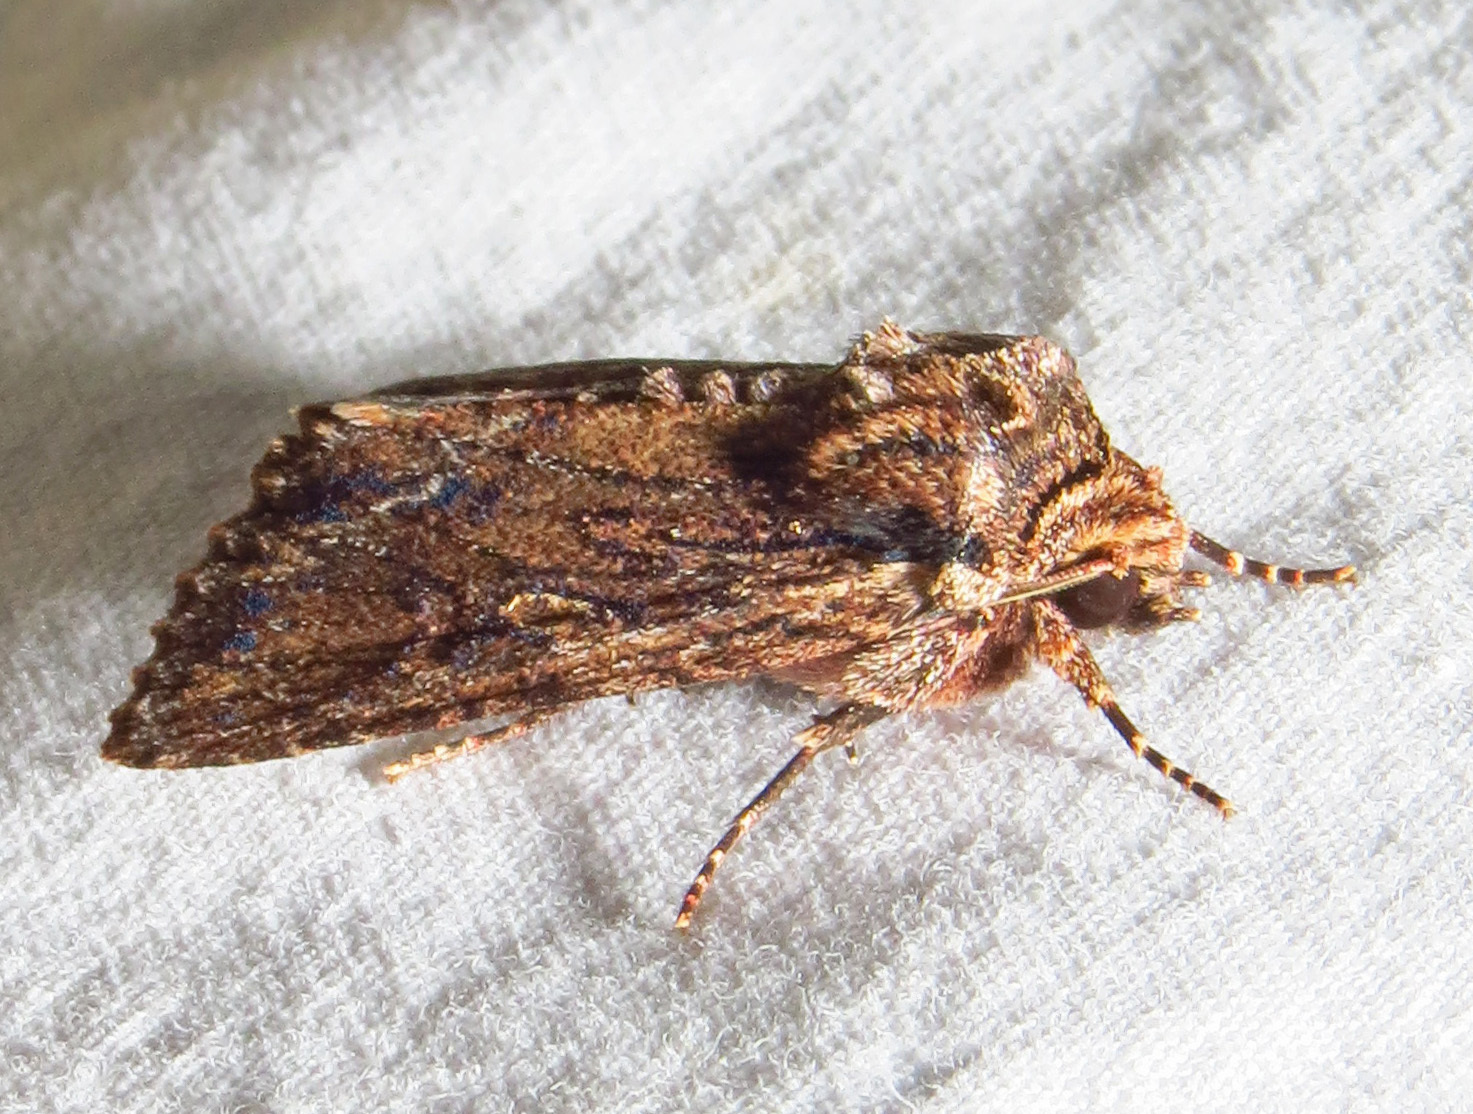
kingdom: Animalia
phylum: Arthropoda
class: Insecta
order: Lepidoptera
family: Noctuidae
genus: Achatia
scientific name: Achatia confusa
